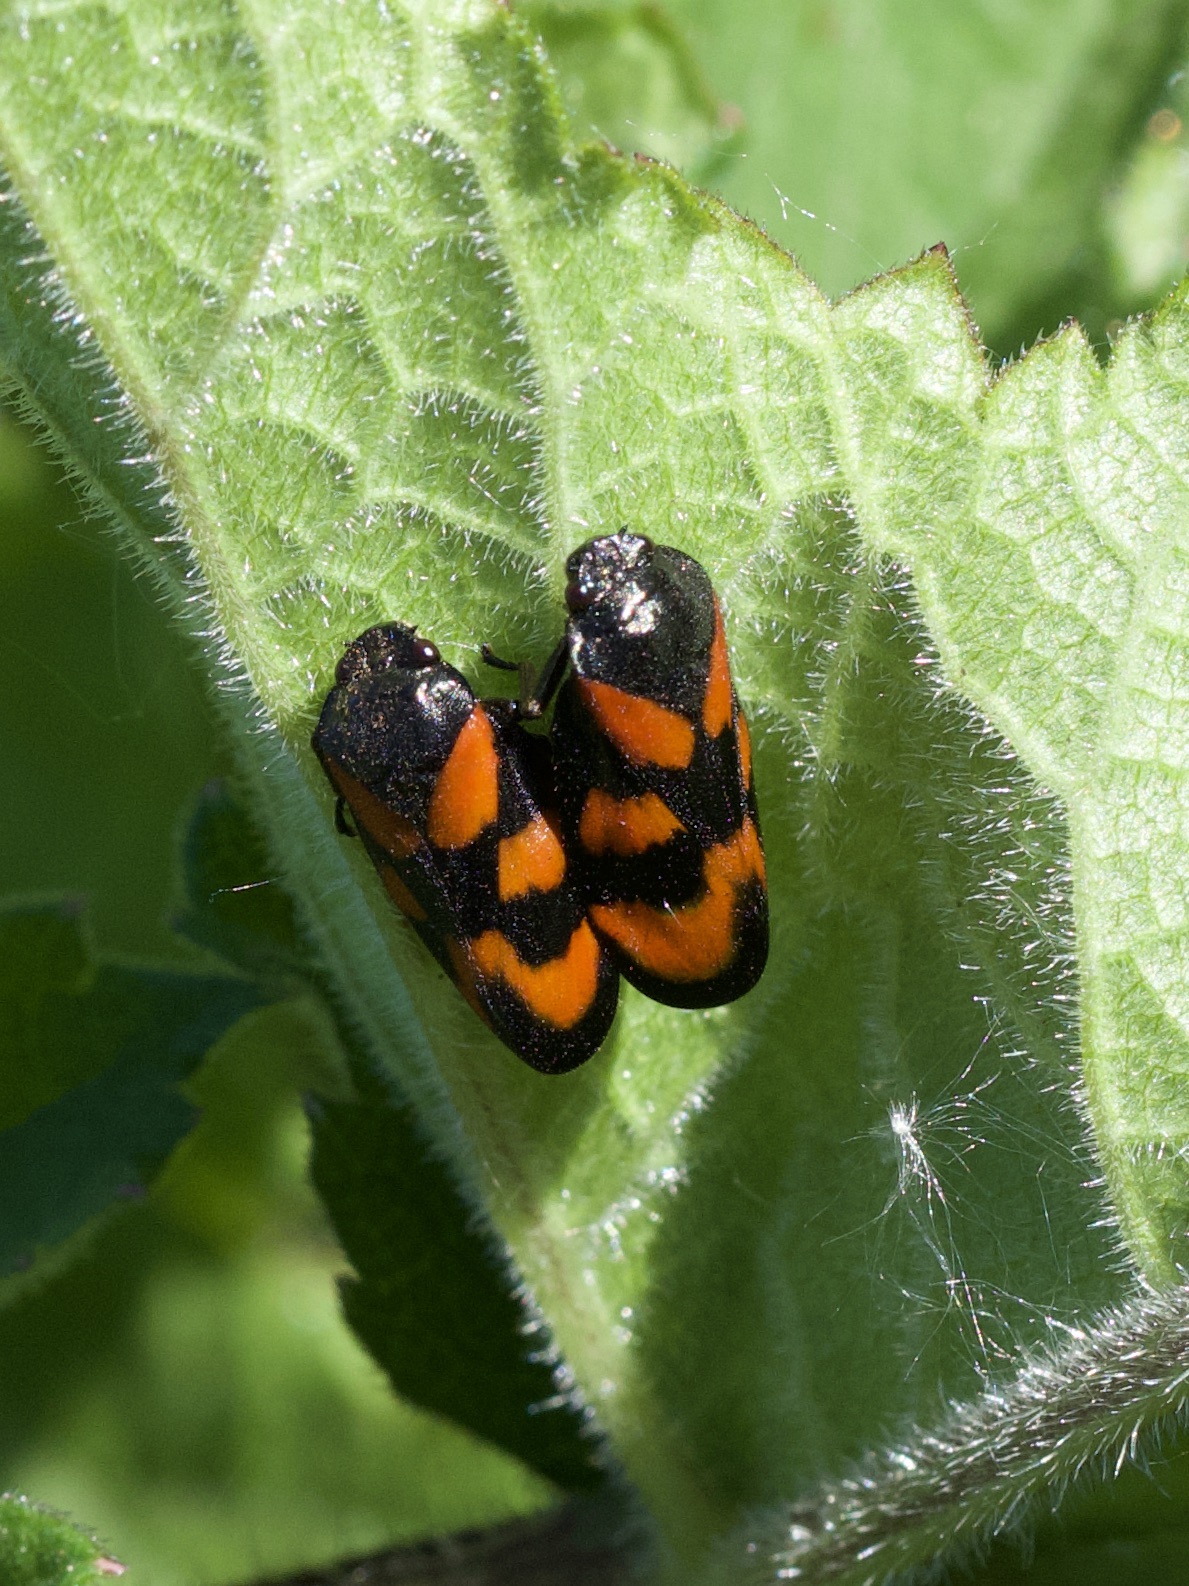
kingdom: Animalia
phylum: Arthropoda
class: Insecta
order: Hemiptera
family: Cercopidae
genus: Cercopis
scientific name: Cercopis vulnerata
